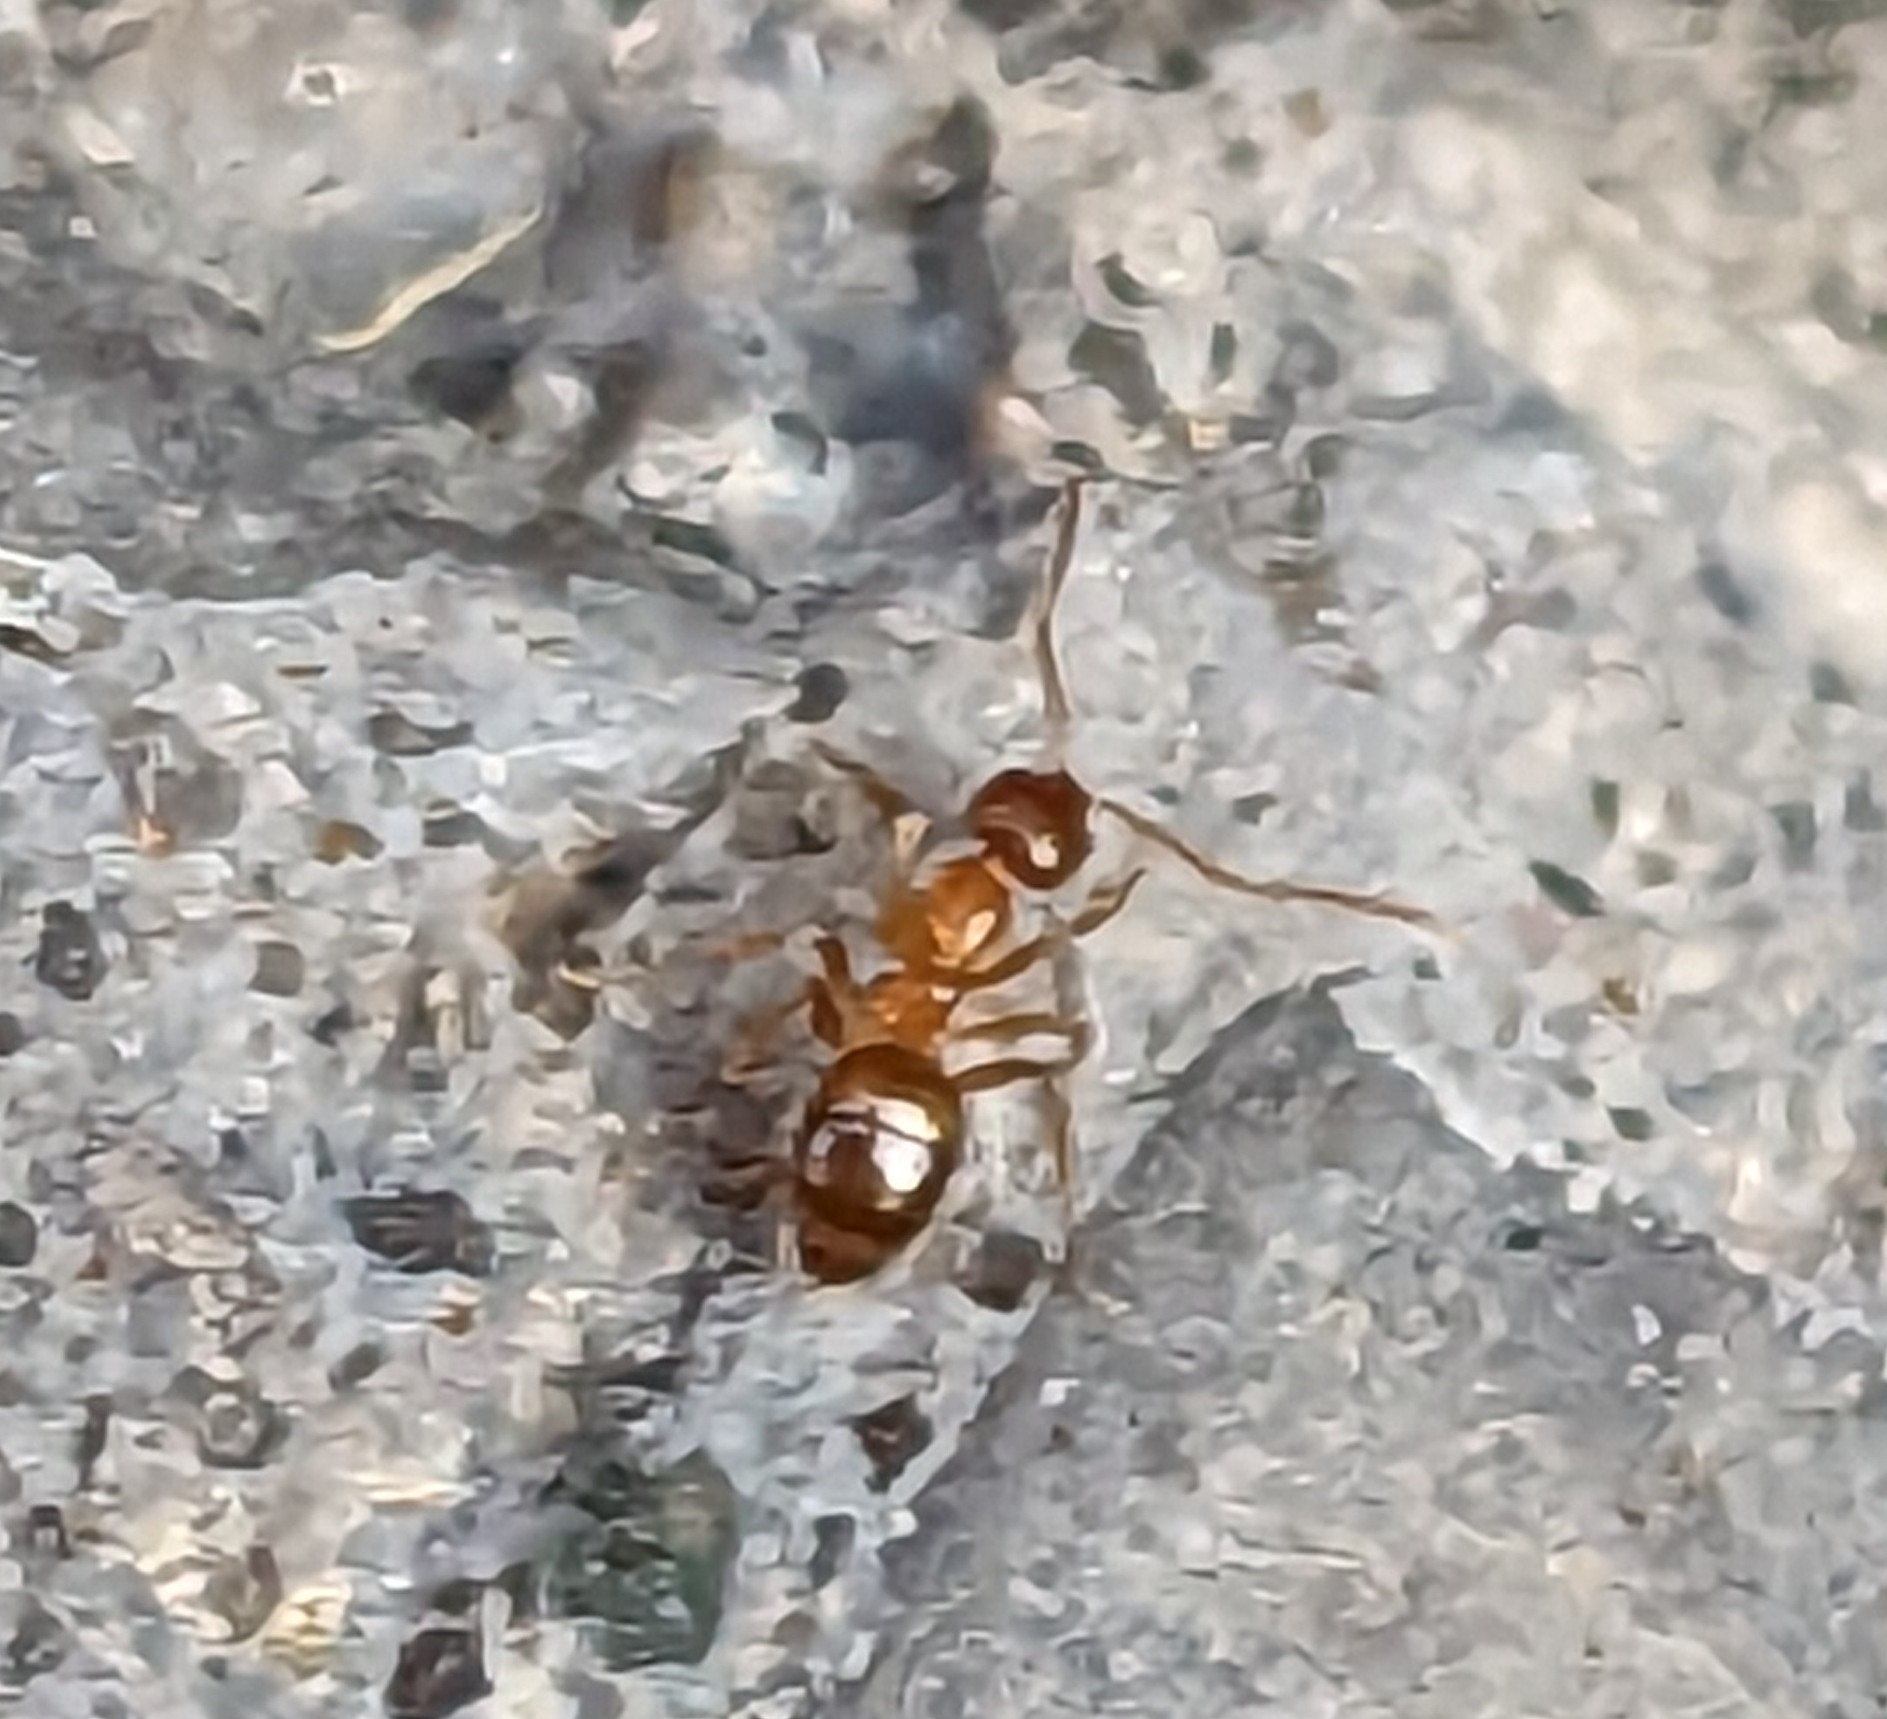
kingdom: Animalia
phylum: Arthropoda
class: Insecta
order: Hymenoptera
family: Formicidae
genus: Paratrechina
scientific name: Paratrechina flavipes
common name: Eastern asian formicine ant
